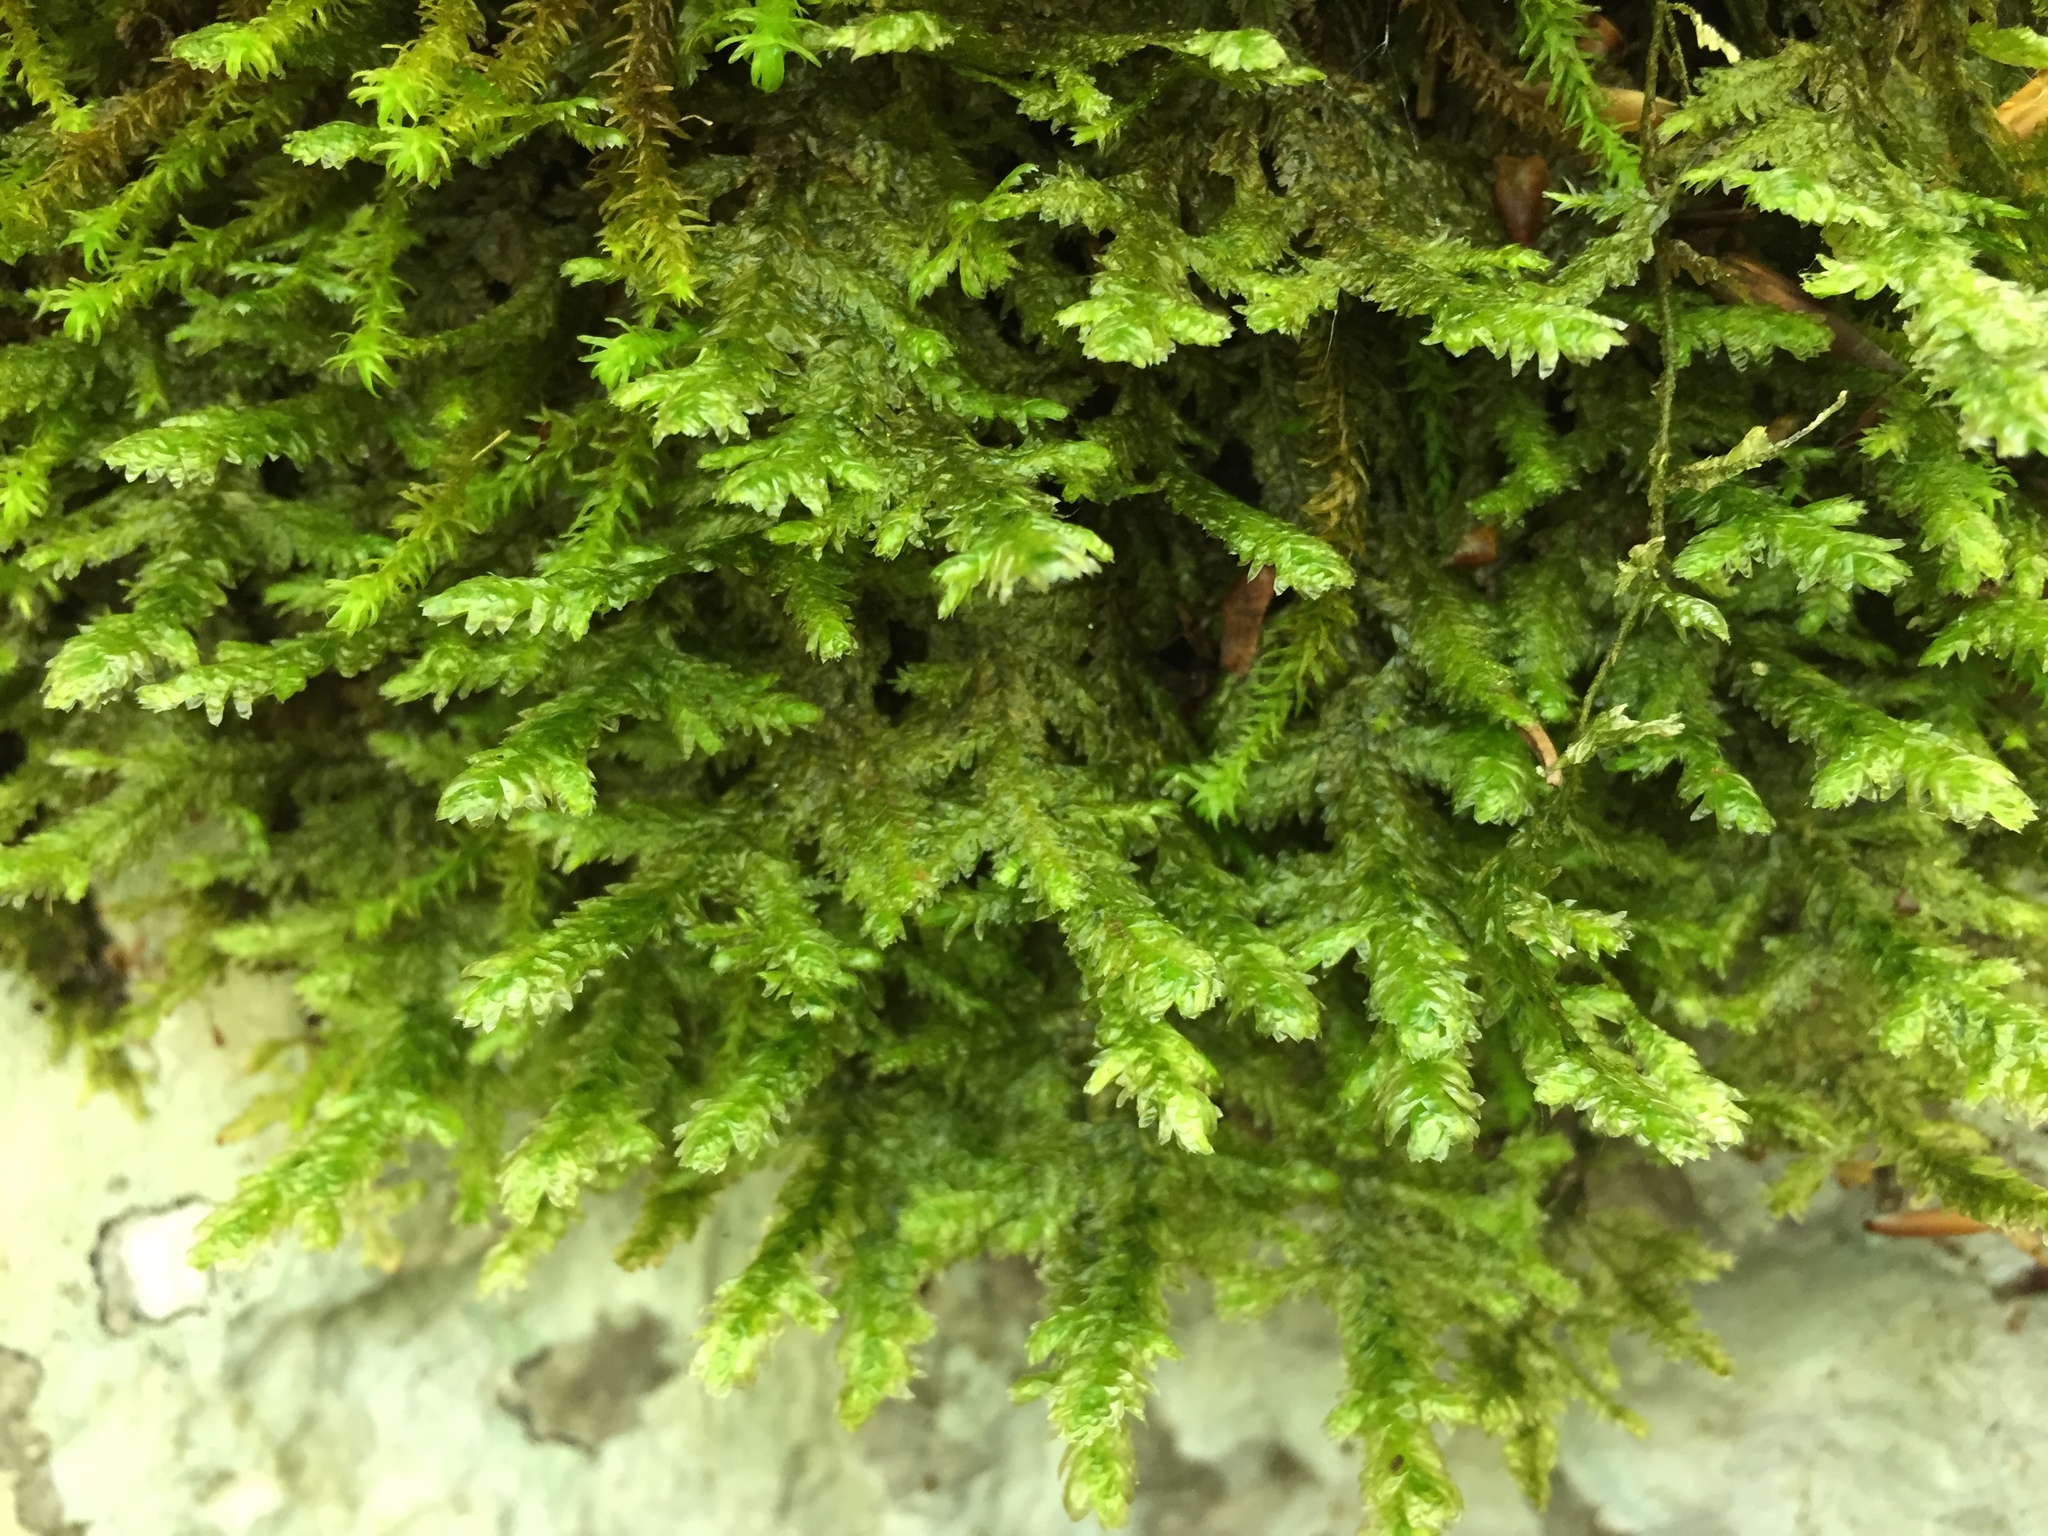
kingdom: Plantae
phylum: Bryophyta
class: Bryopsida
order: Hypnales
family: Neckeraceae
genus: Exsertotheca
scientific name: Exsertotheca crispa
